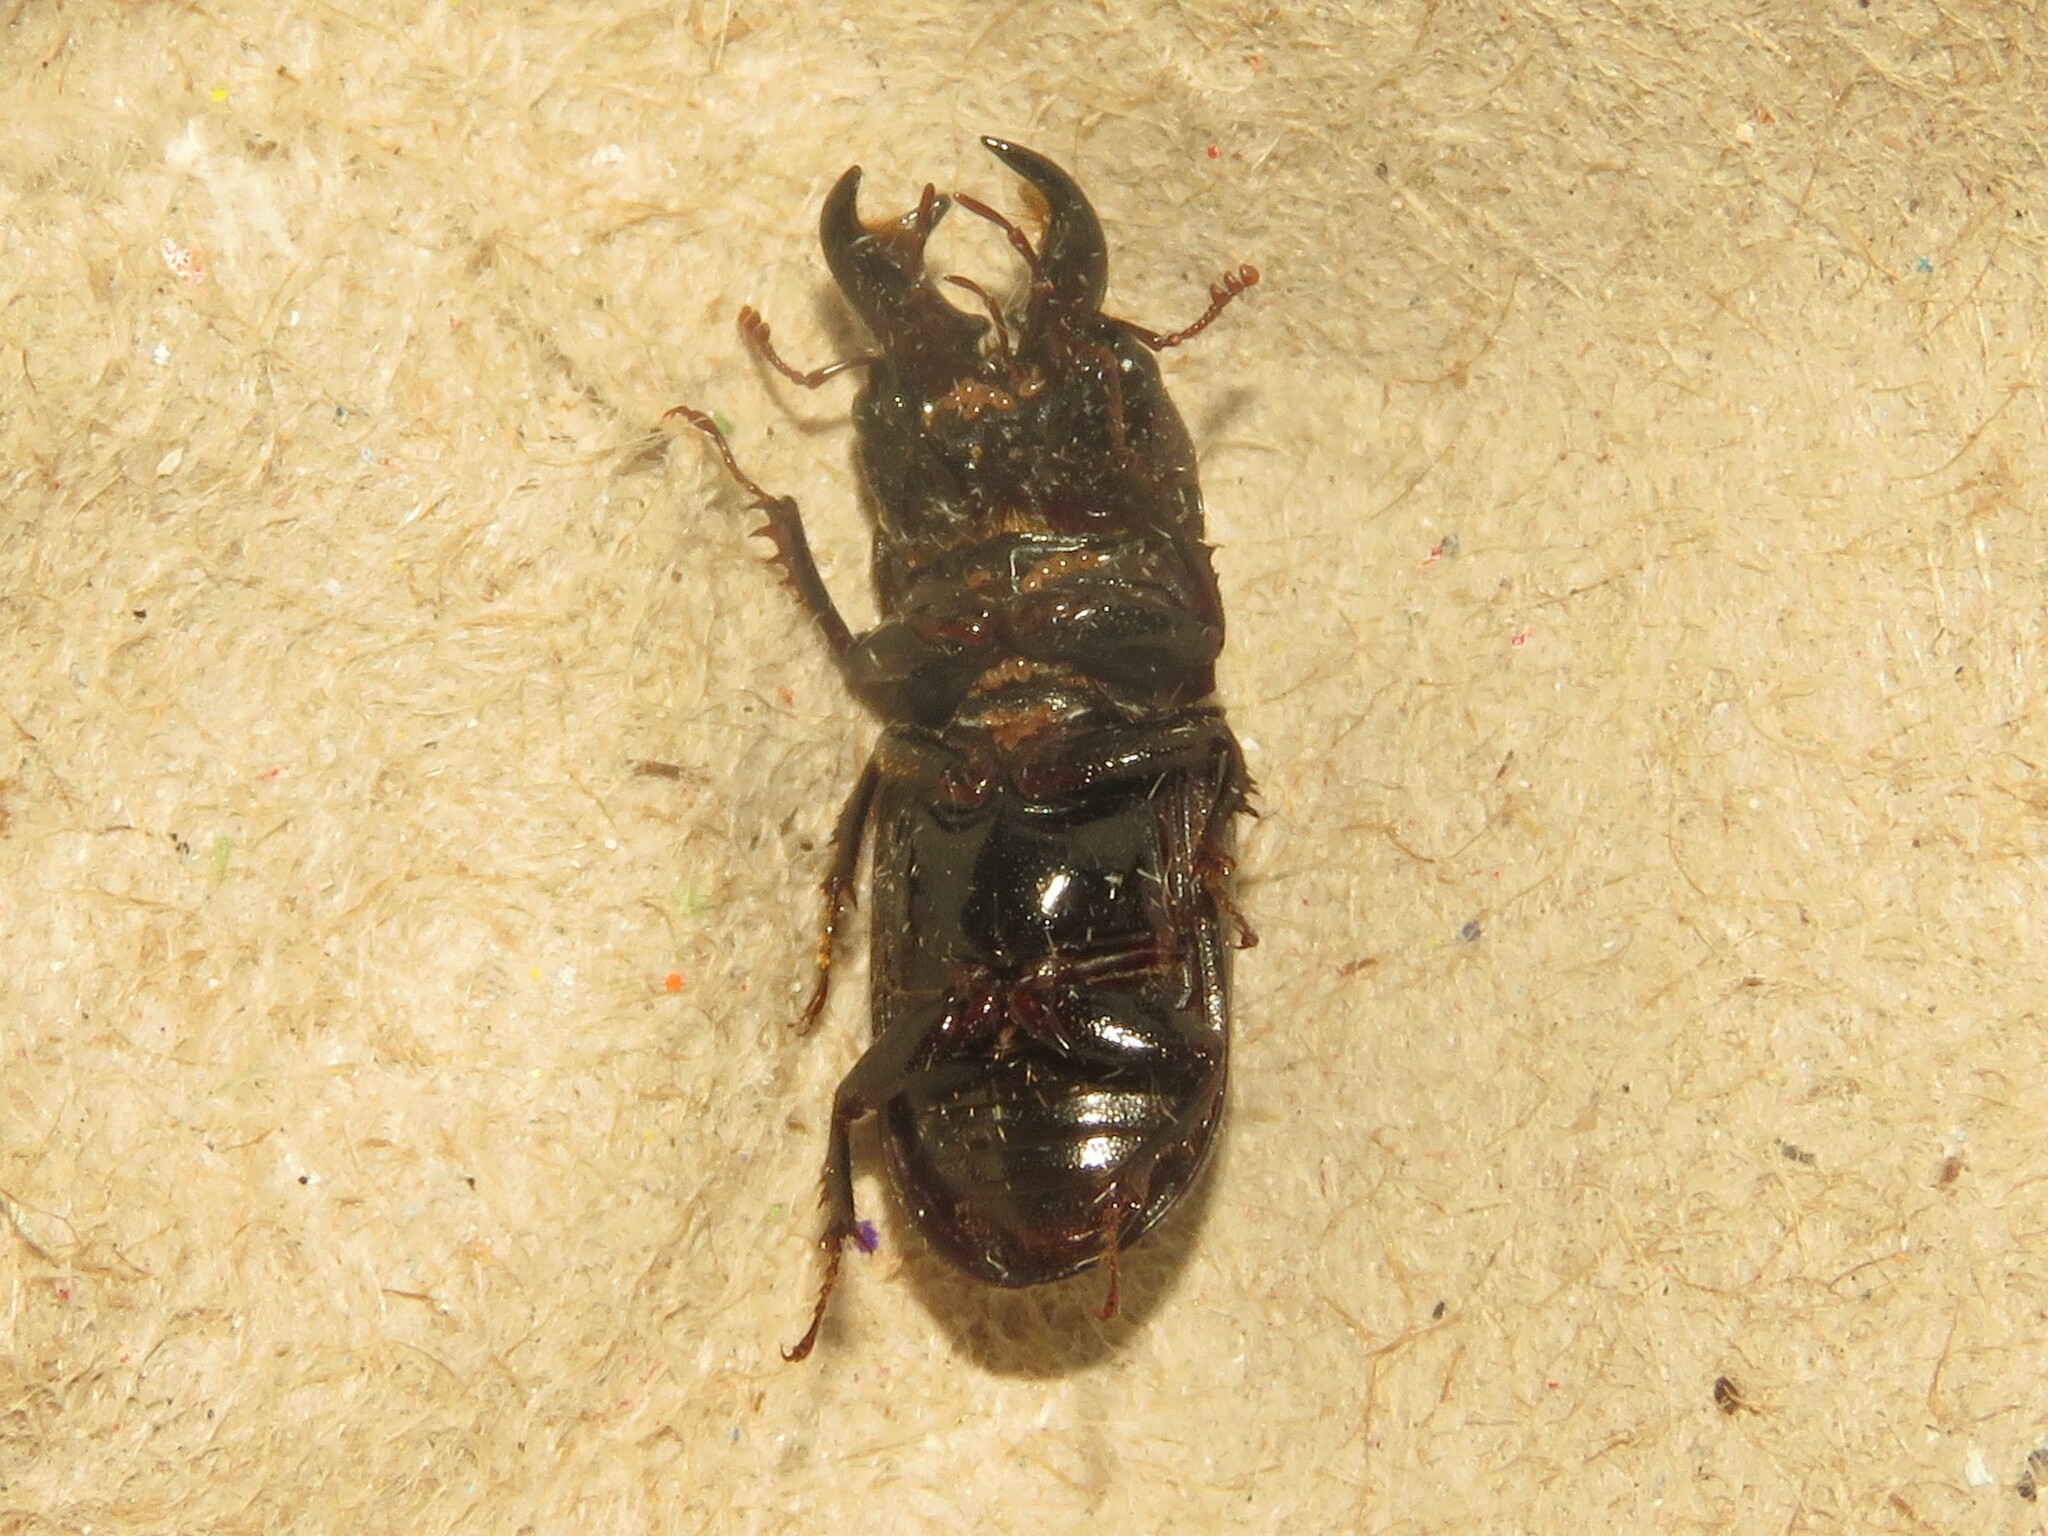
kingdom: Animalia
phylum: Arthropoda
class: Insecta
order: Coleoptera
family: Lucanidae
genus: Ceruchus
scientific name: Ceruchus piceus
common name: Red-rot decay stag beetle
